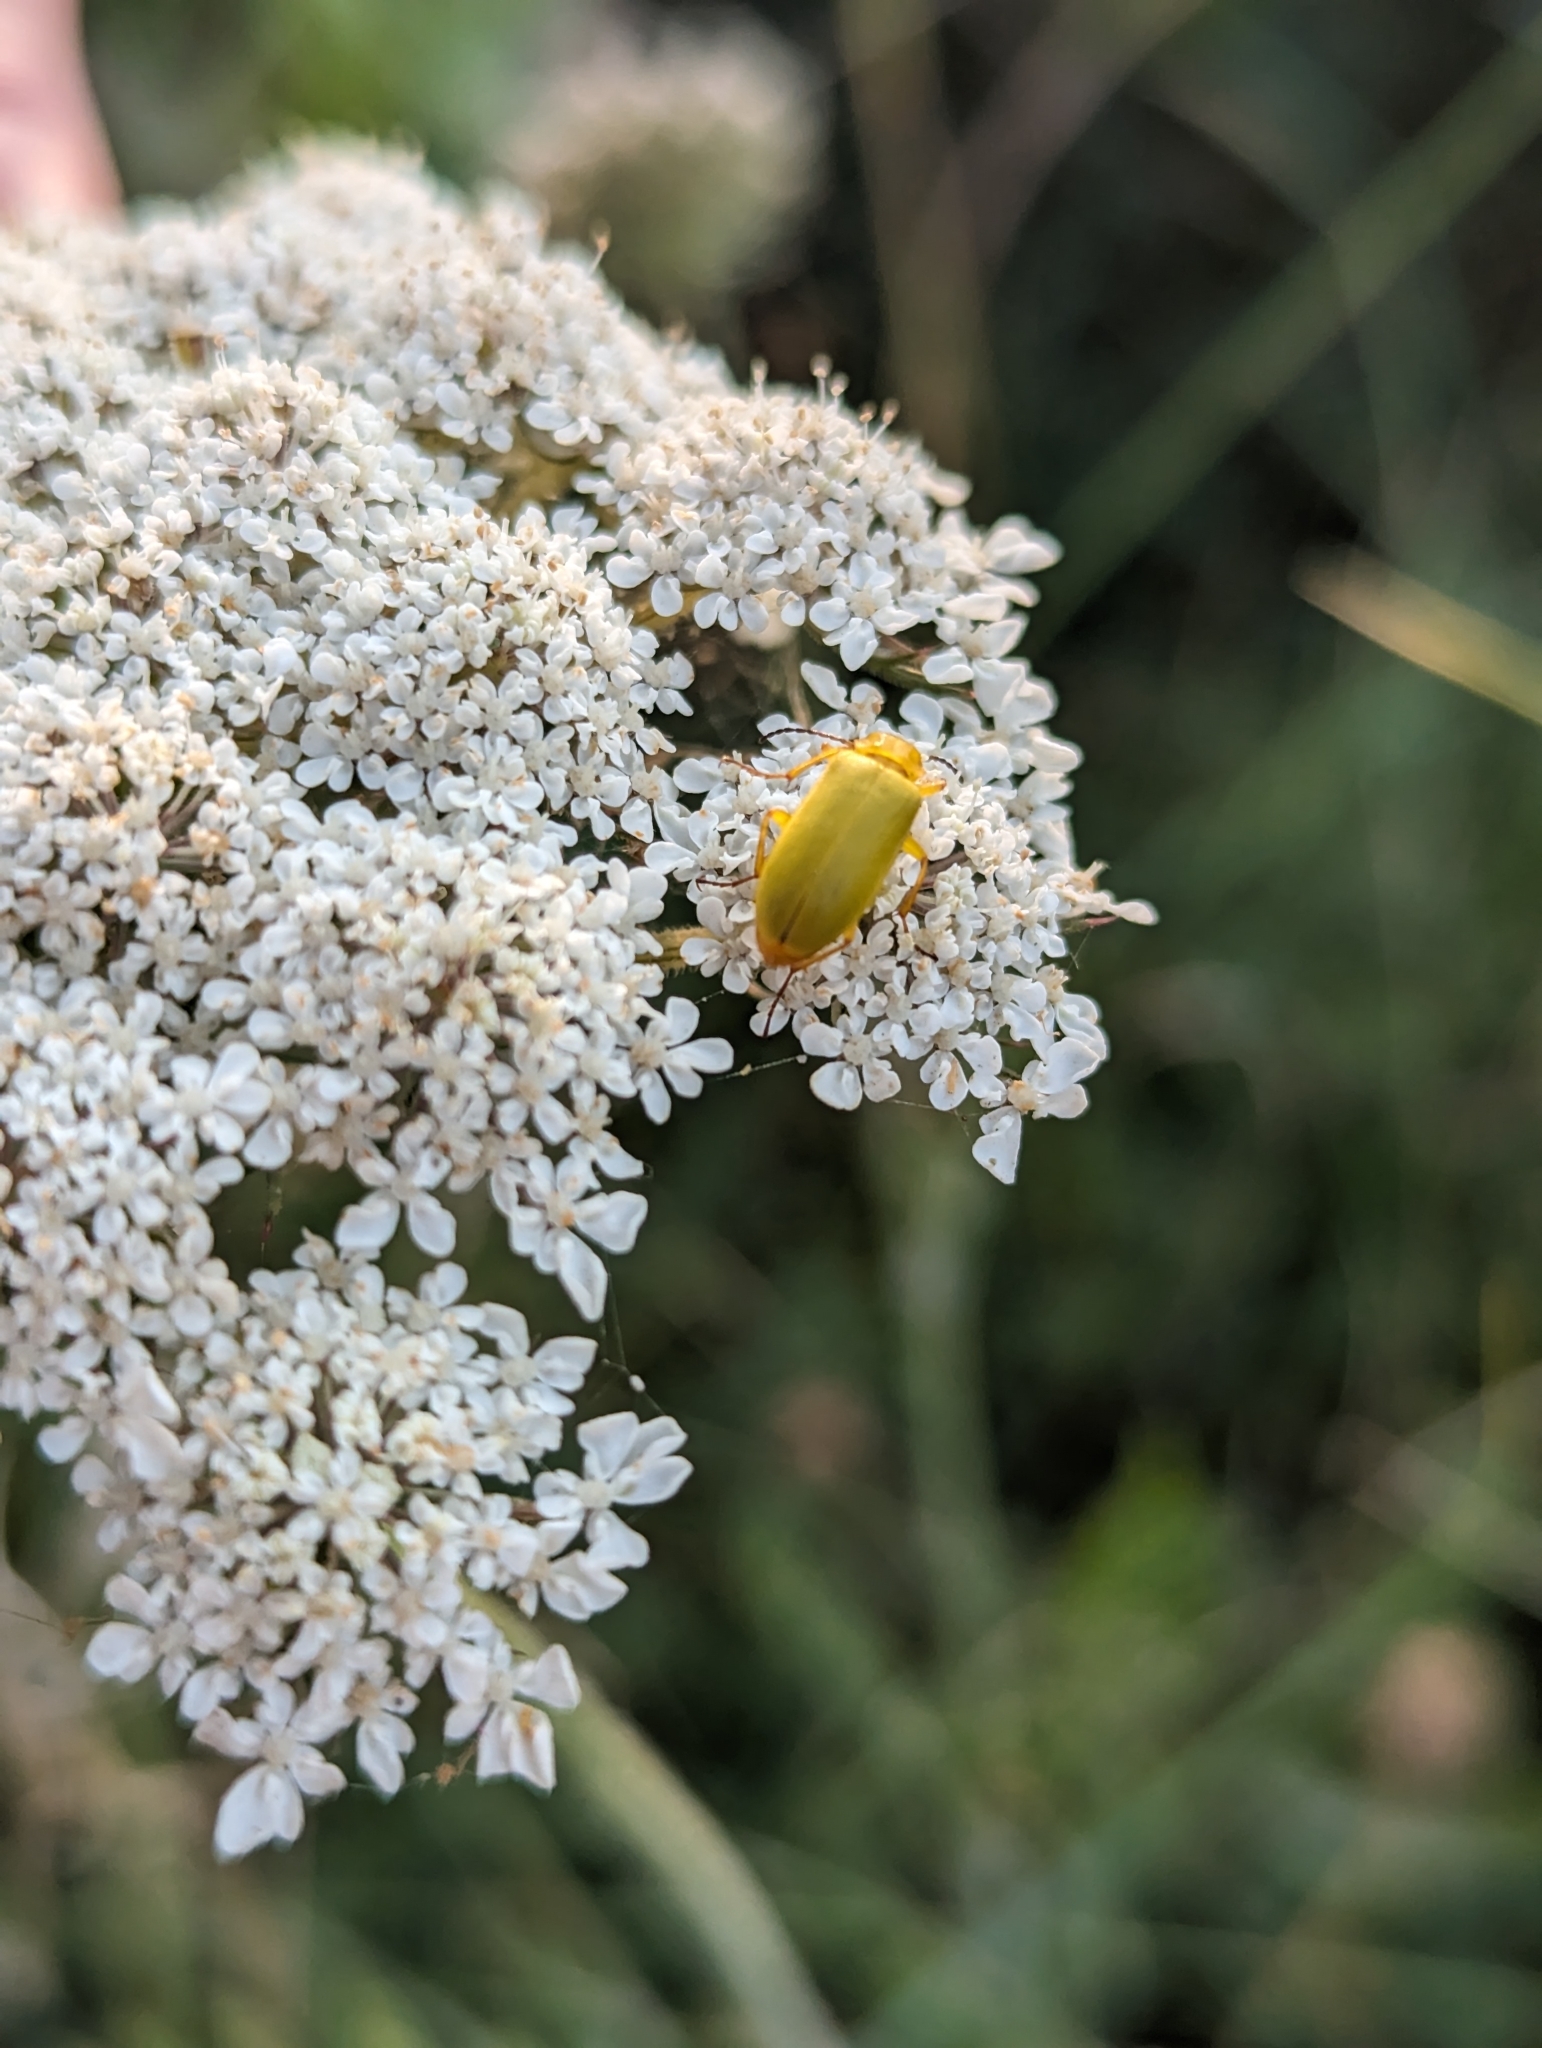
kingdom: Animalia
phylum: Arthropoda
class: Insecta
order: Coleoptera
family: Tenebrionidae
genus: Cteniopus
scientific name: Cteniopus sulphureus
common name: Sulphur beetle
